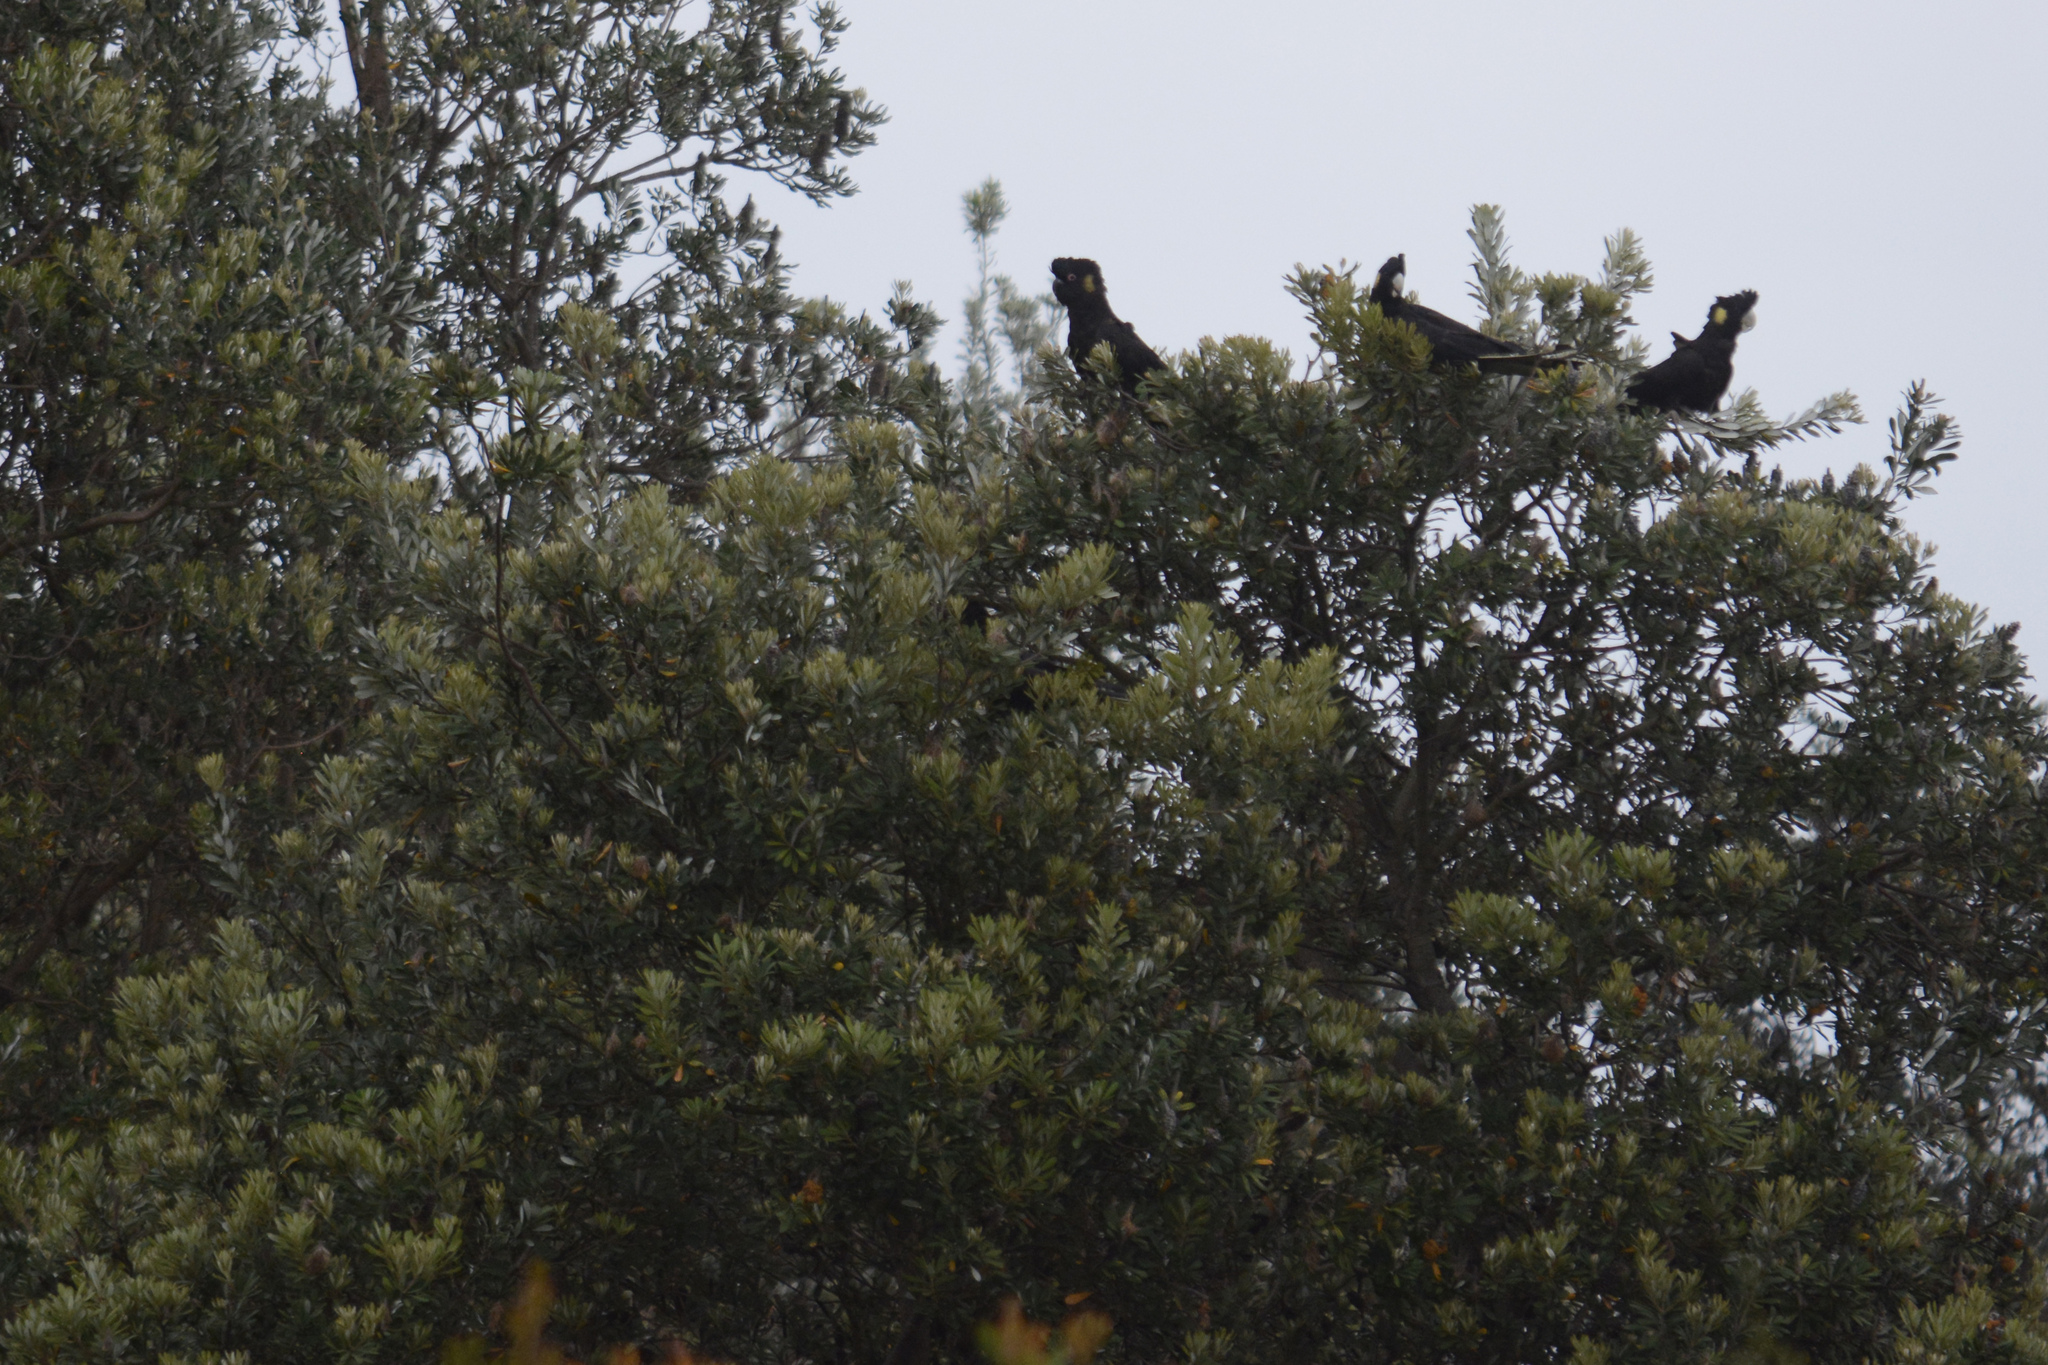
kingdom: Animalia
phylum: Chordata
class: Aves
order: Psittaciformes
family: Cacatuidae
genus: Zanda
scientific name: Zanda funerea
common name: Yellow-tailed black-cockatoo
